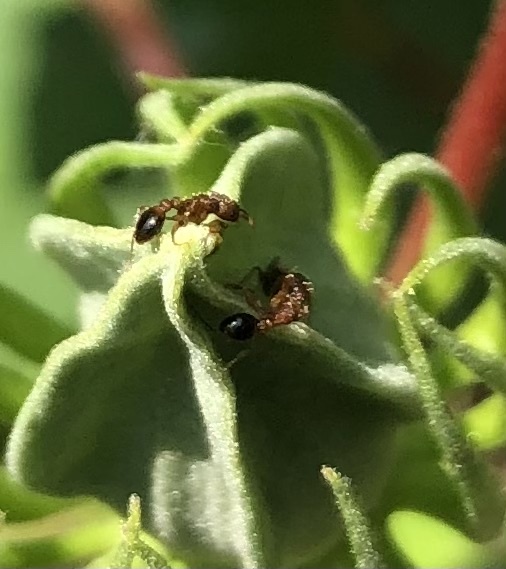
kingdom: Animalia
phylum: Arthropoda
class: Insecta
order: Hymenoptera
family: Formicidae
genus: Tetramorium
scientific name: Tetramorium bicarinatum
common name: Guinea ant
